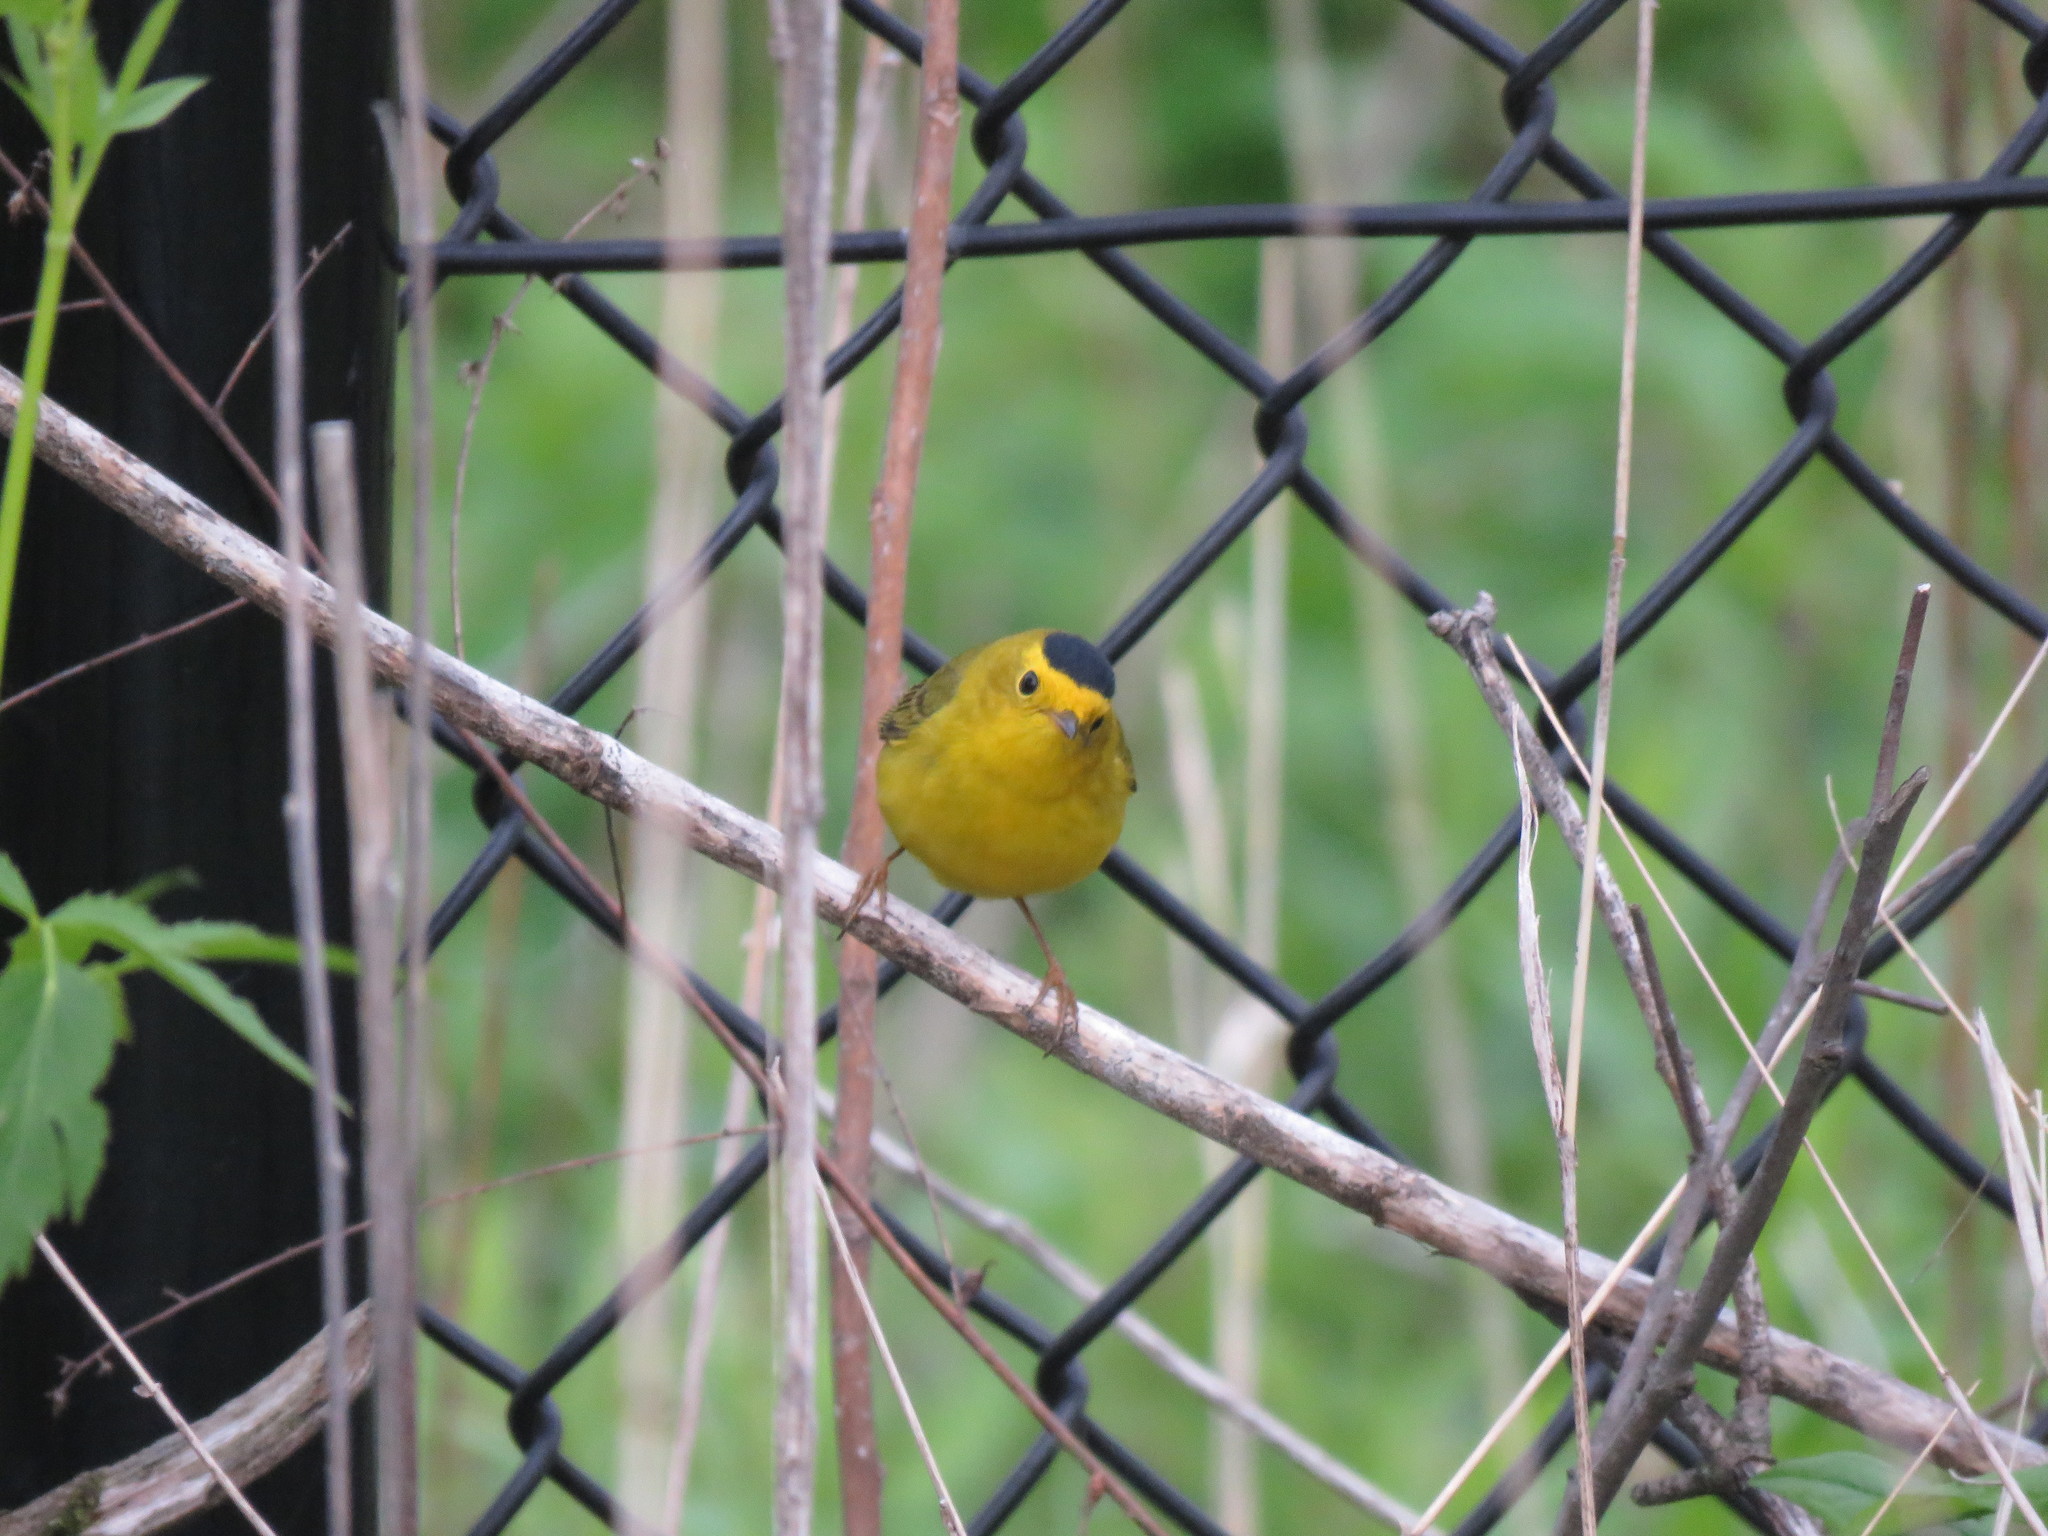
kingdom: Animalia
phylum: Chordata
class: Aves
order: Passeriformes
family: Parulidae
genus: Cardellina
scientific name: Cardellina pusilla
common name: Wilson's warbler
